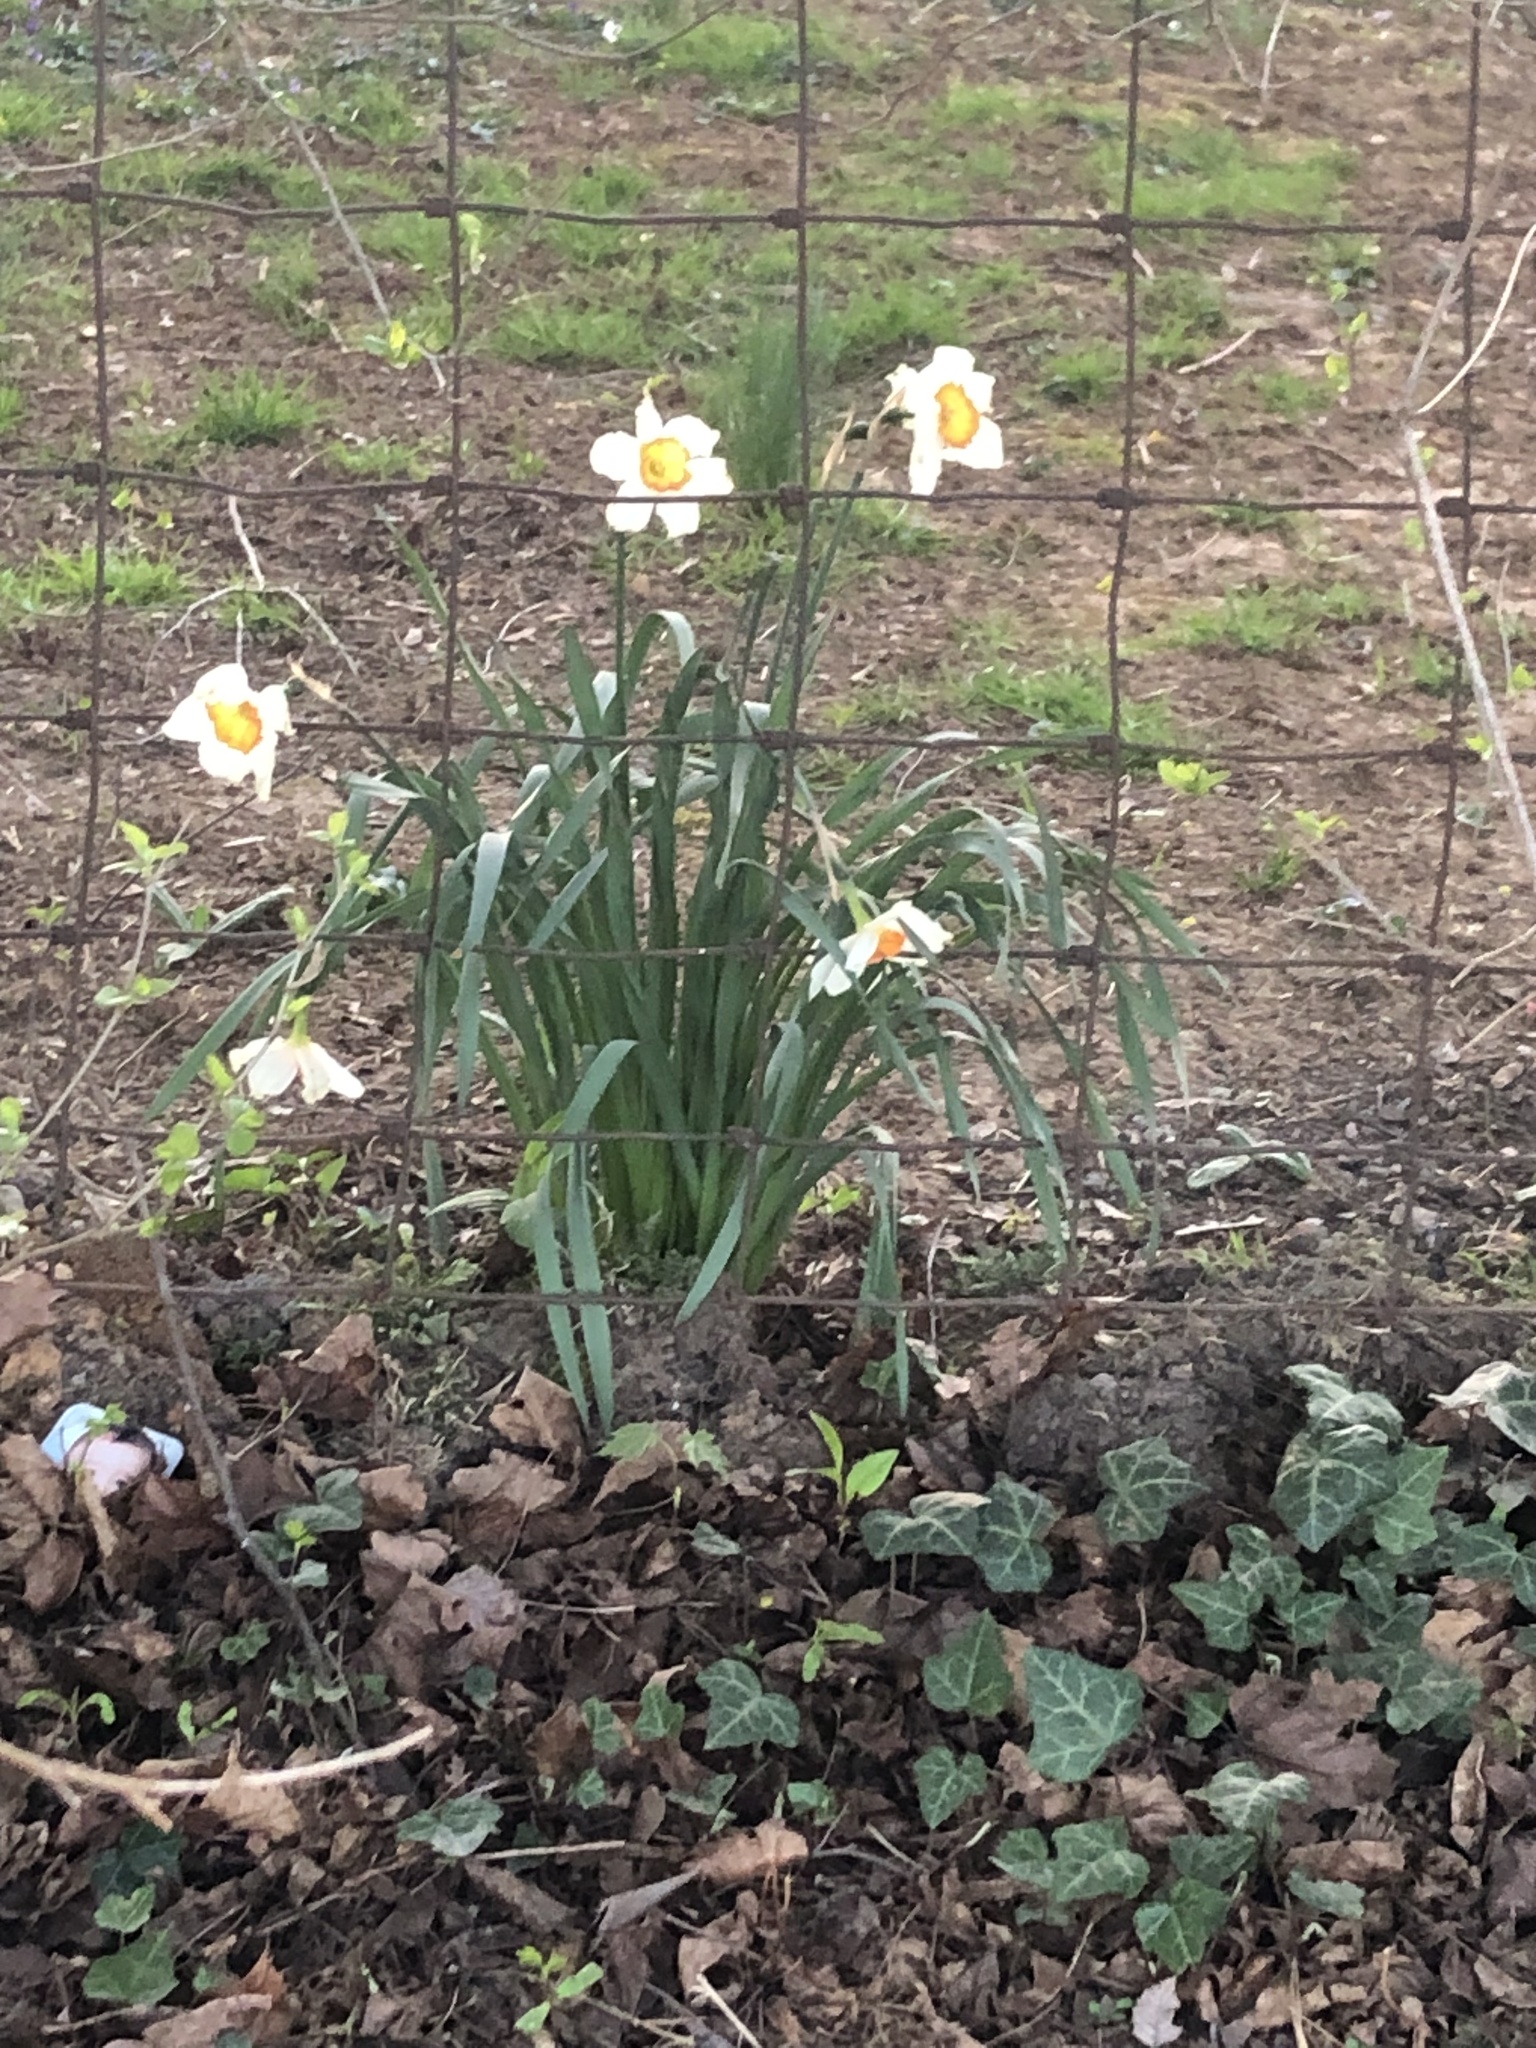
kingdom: Plantae
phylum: Tracheophyta
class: Liliopsida
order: Asparagales
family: Amaryllidaceae
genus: Narcissus
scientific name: Narcissus poeticus
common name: Pheasant's-eye daffodil
